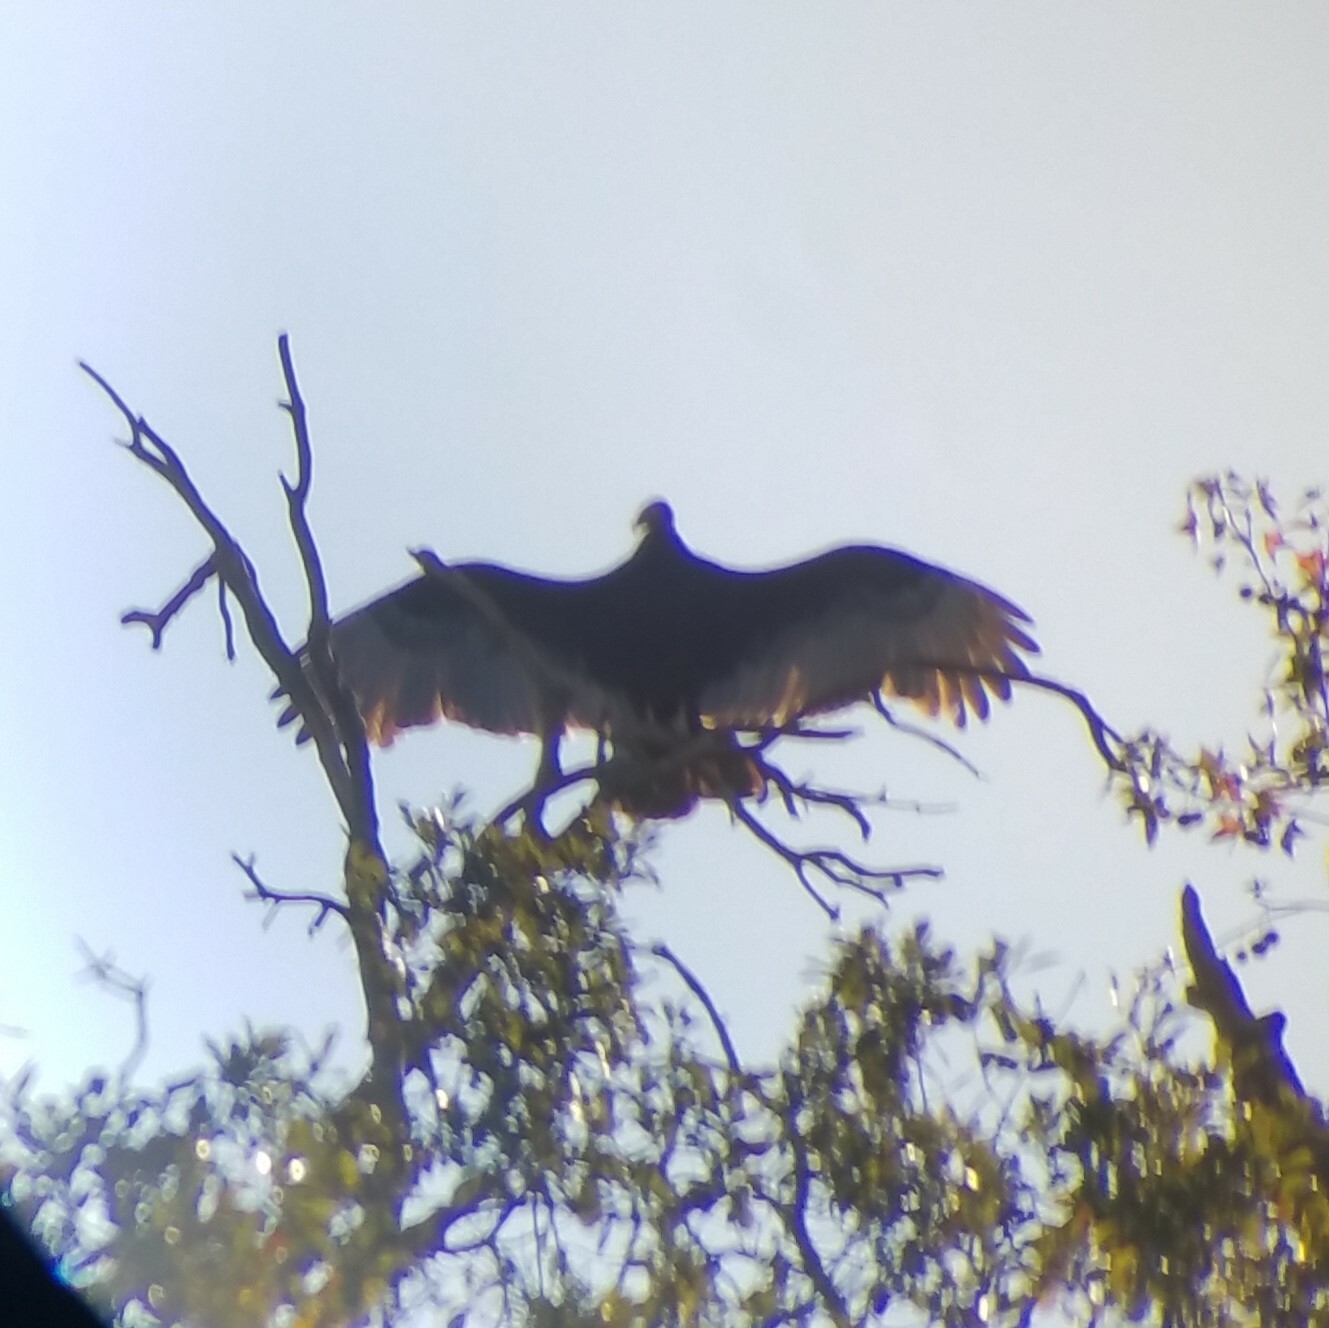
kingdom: Animalia
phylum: Chordata
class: Aves
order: Accipitriformes
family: Cathartidae
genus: Cathartes
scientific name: Cathartes aura
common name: Turkey vulture
